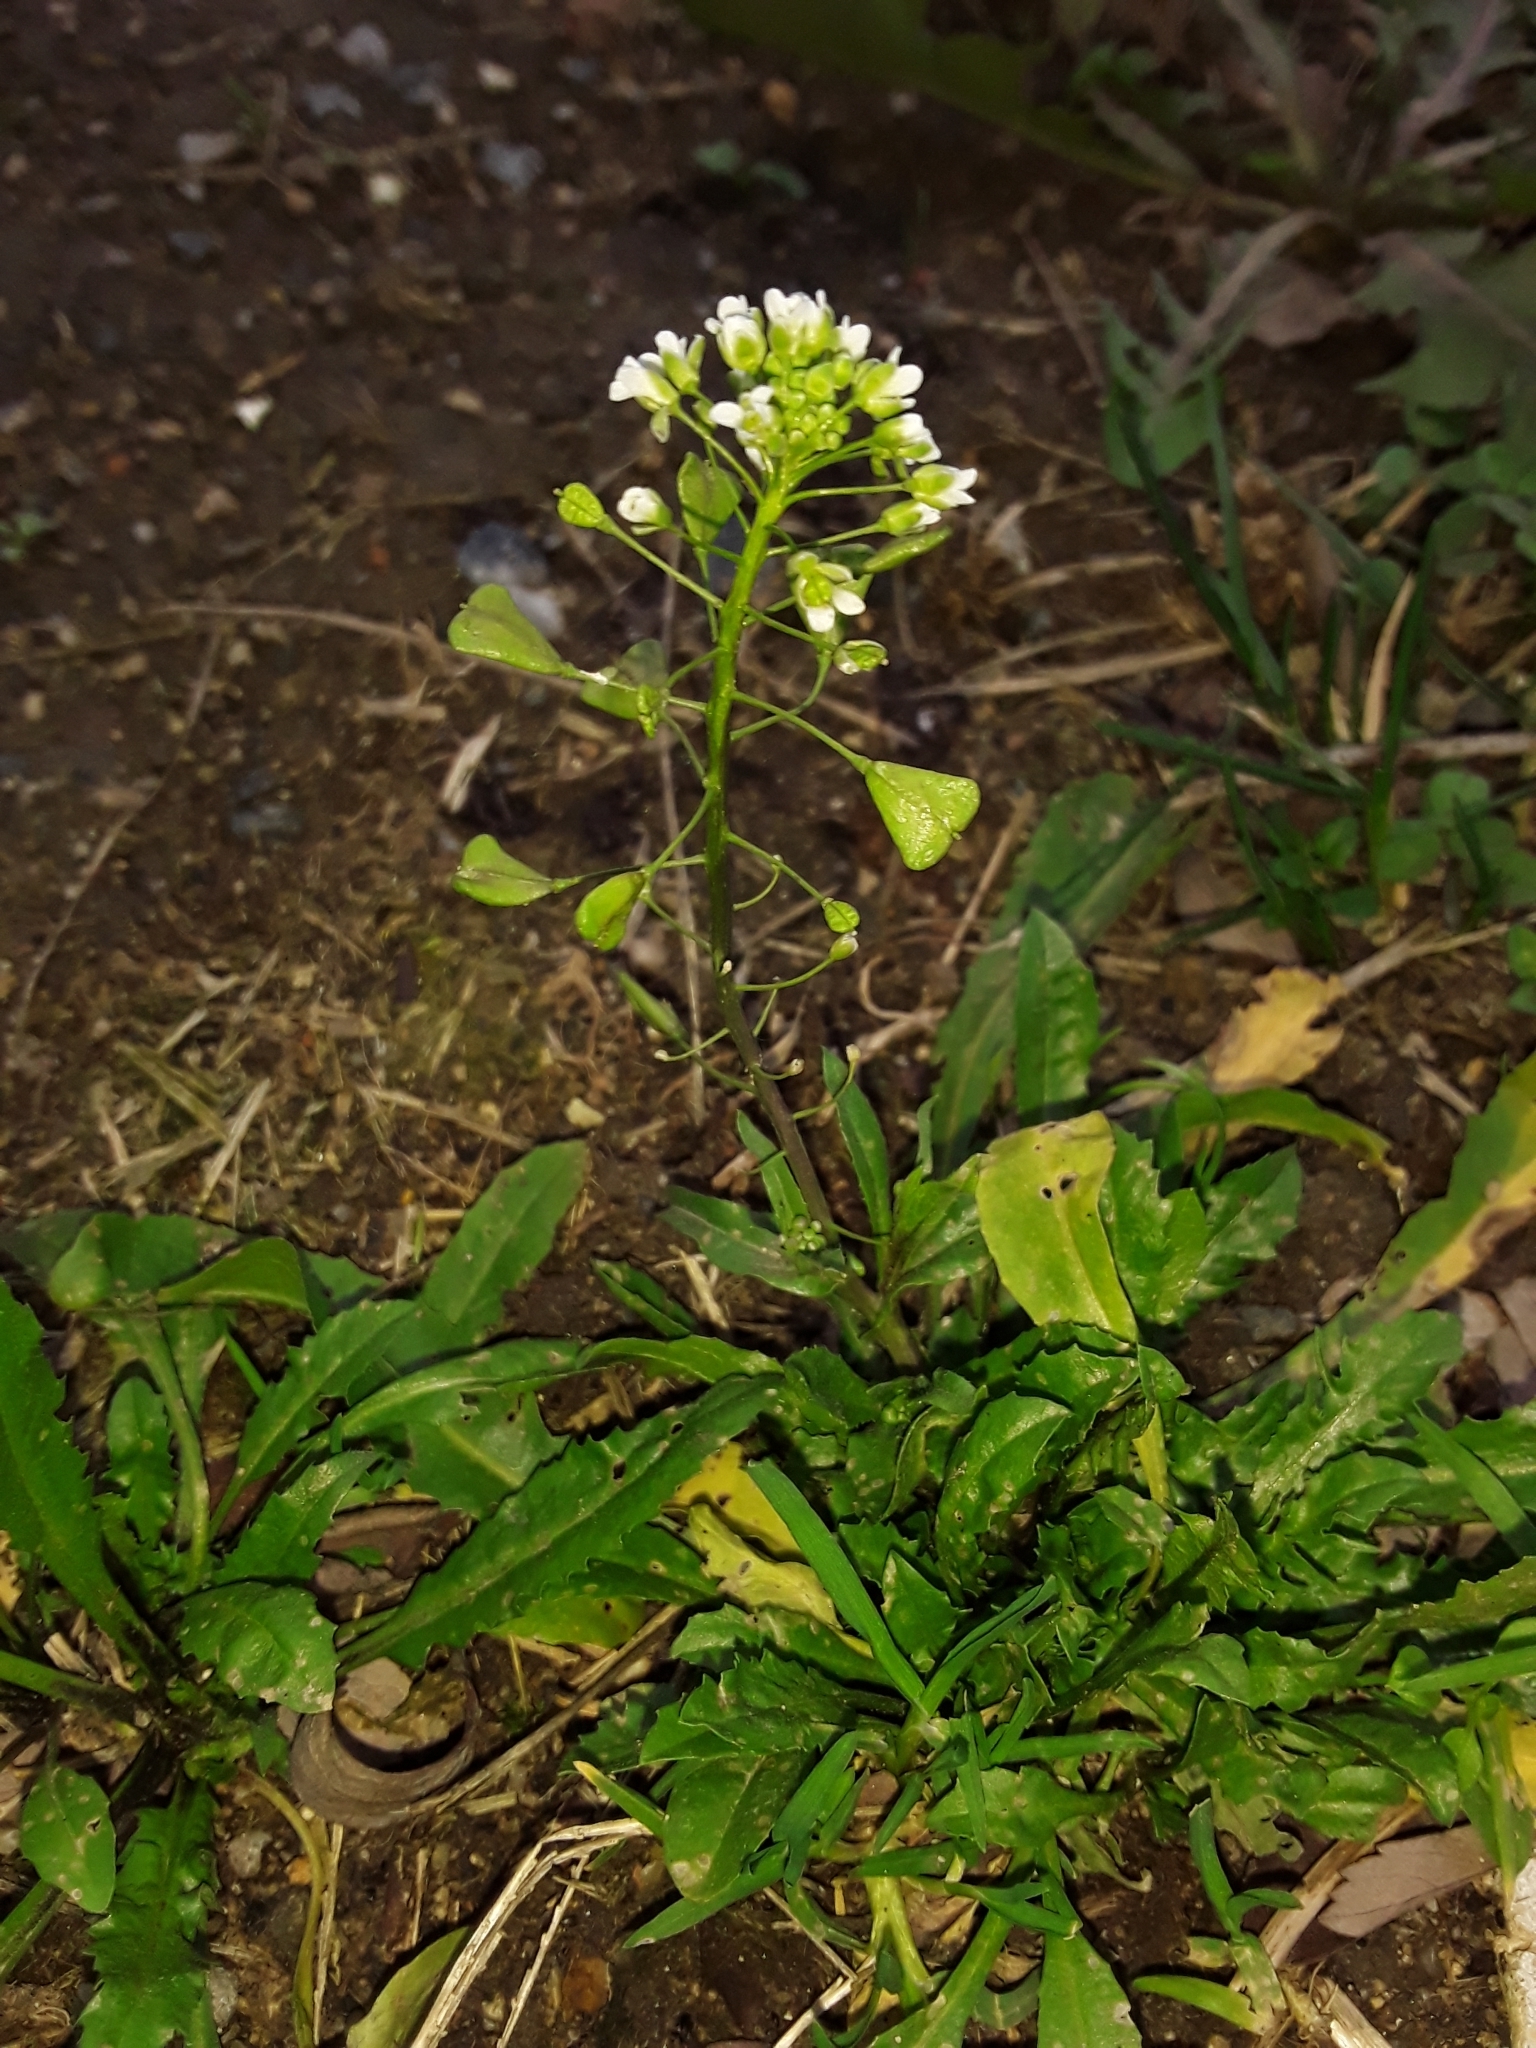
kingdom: Plantae
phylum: Tracheophyta
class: Magnoliopsida
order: Brassicales
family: Brassicaceae
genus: Capsella
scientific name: Capsella bursa-pastoris
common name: Shepherd's purse
